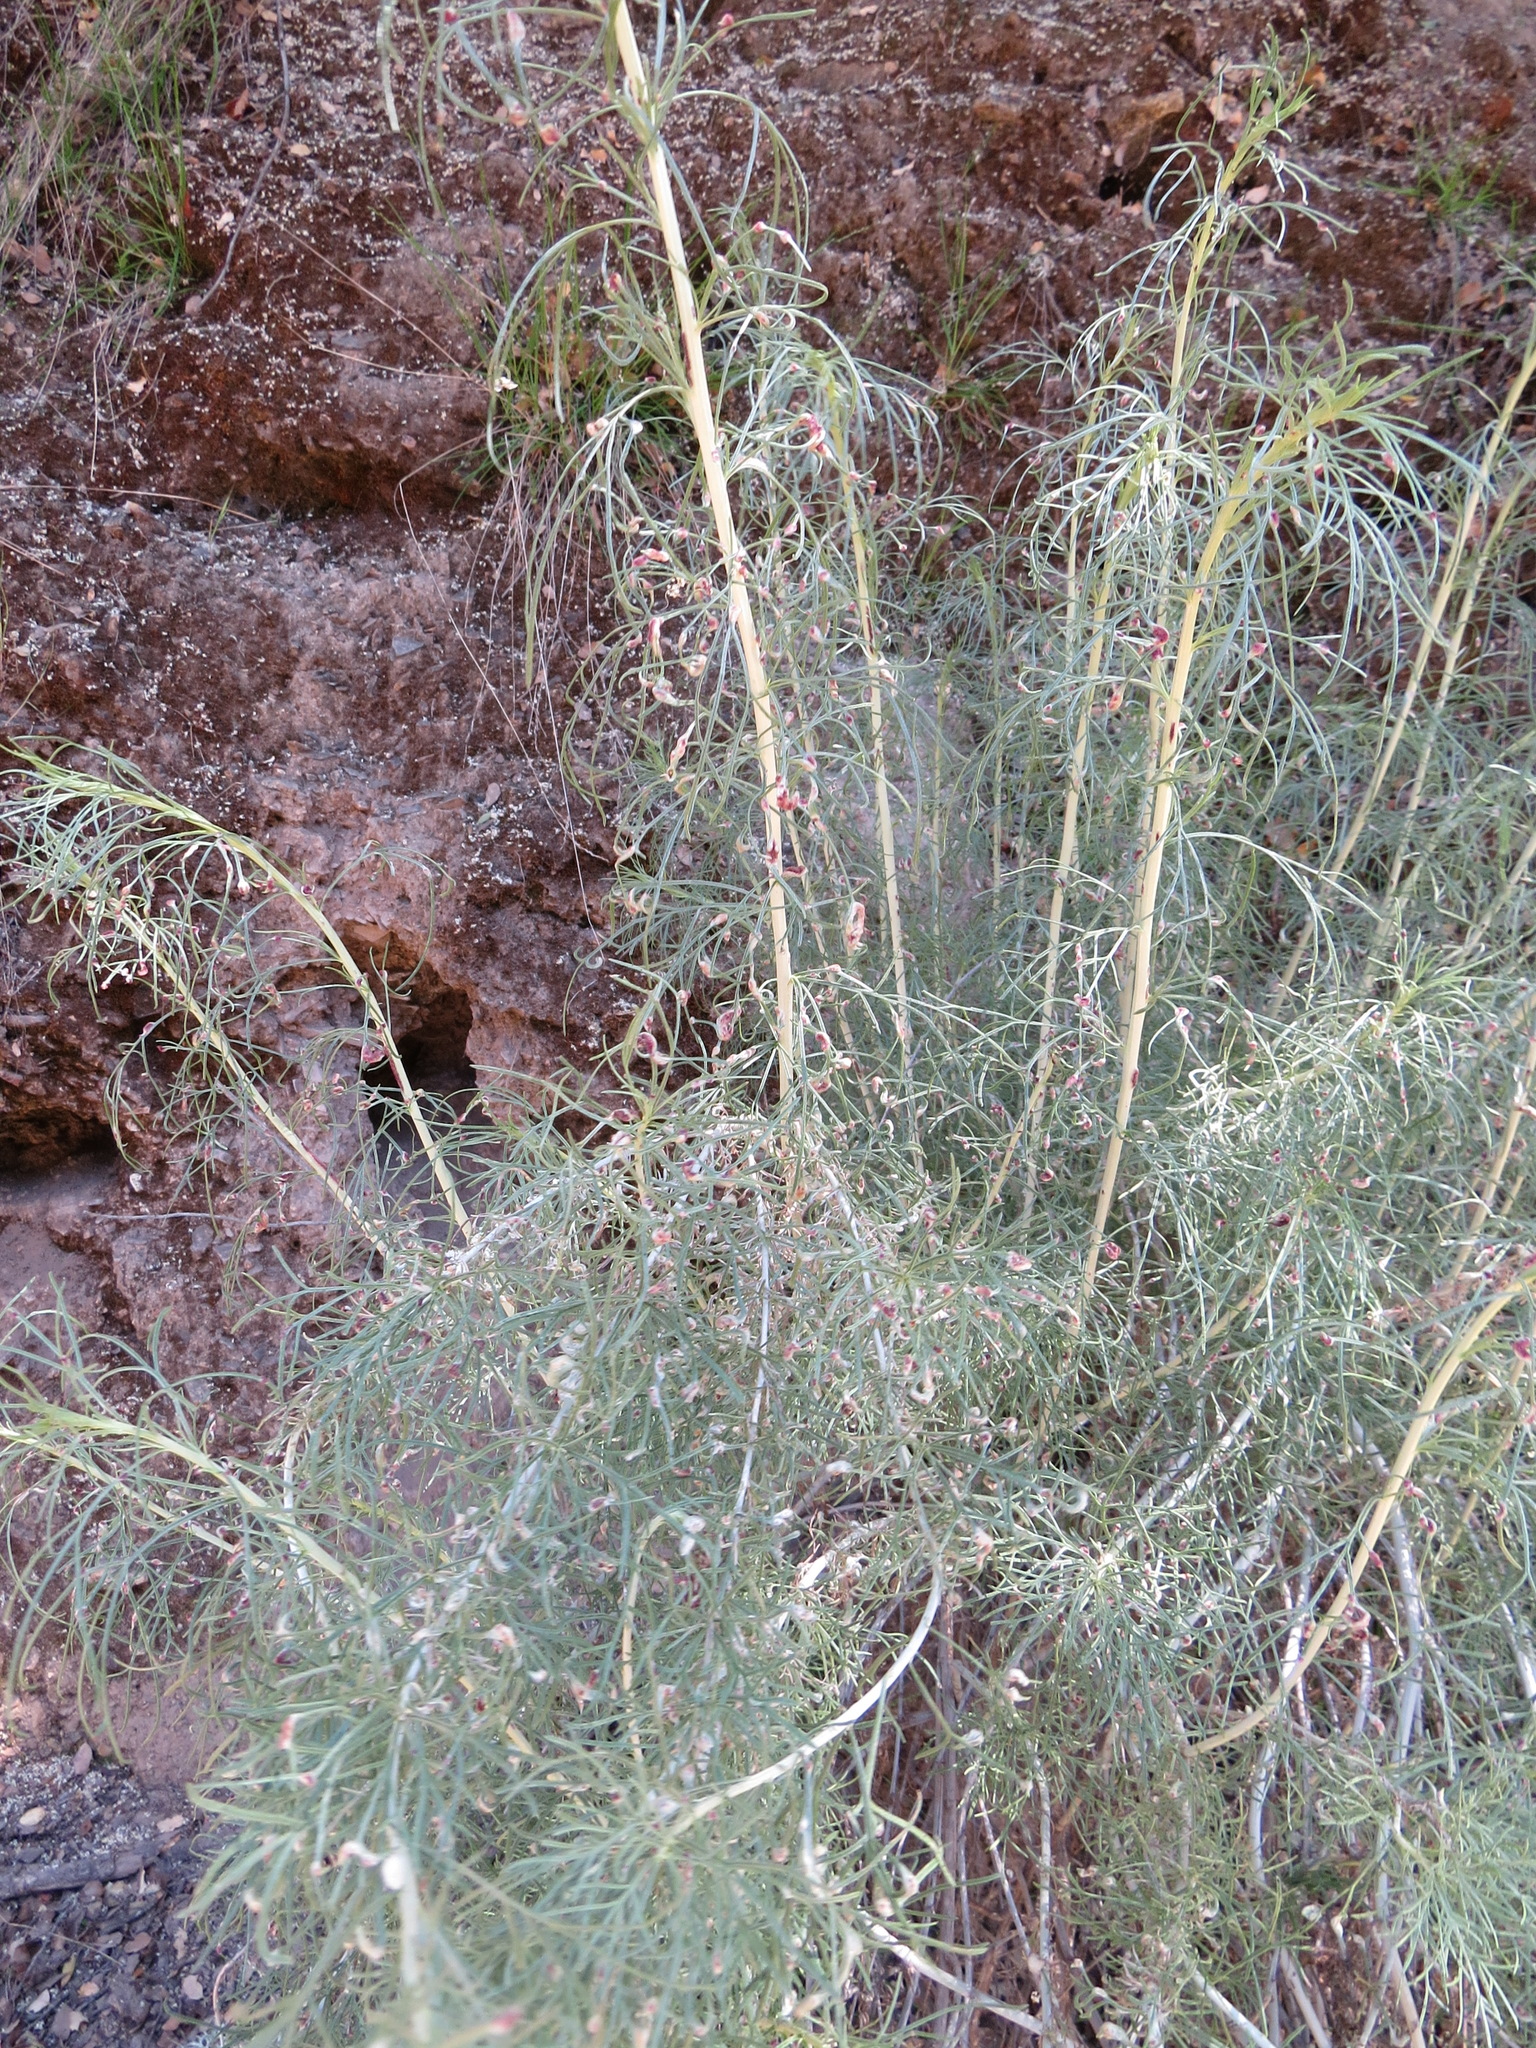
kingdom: Animalia
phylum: Arthropoda
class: Arachnida
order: Trombidiformes
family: Eriophyidae
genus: Aceria
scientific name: Aceria
